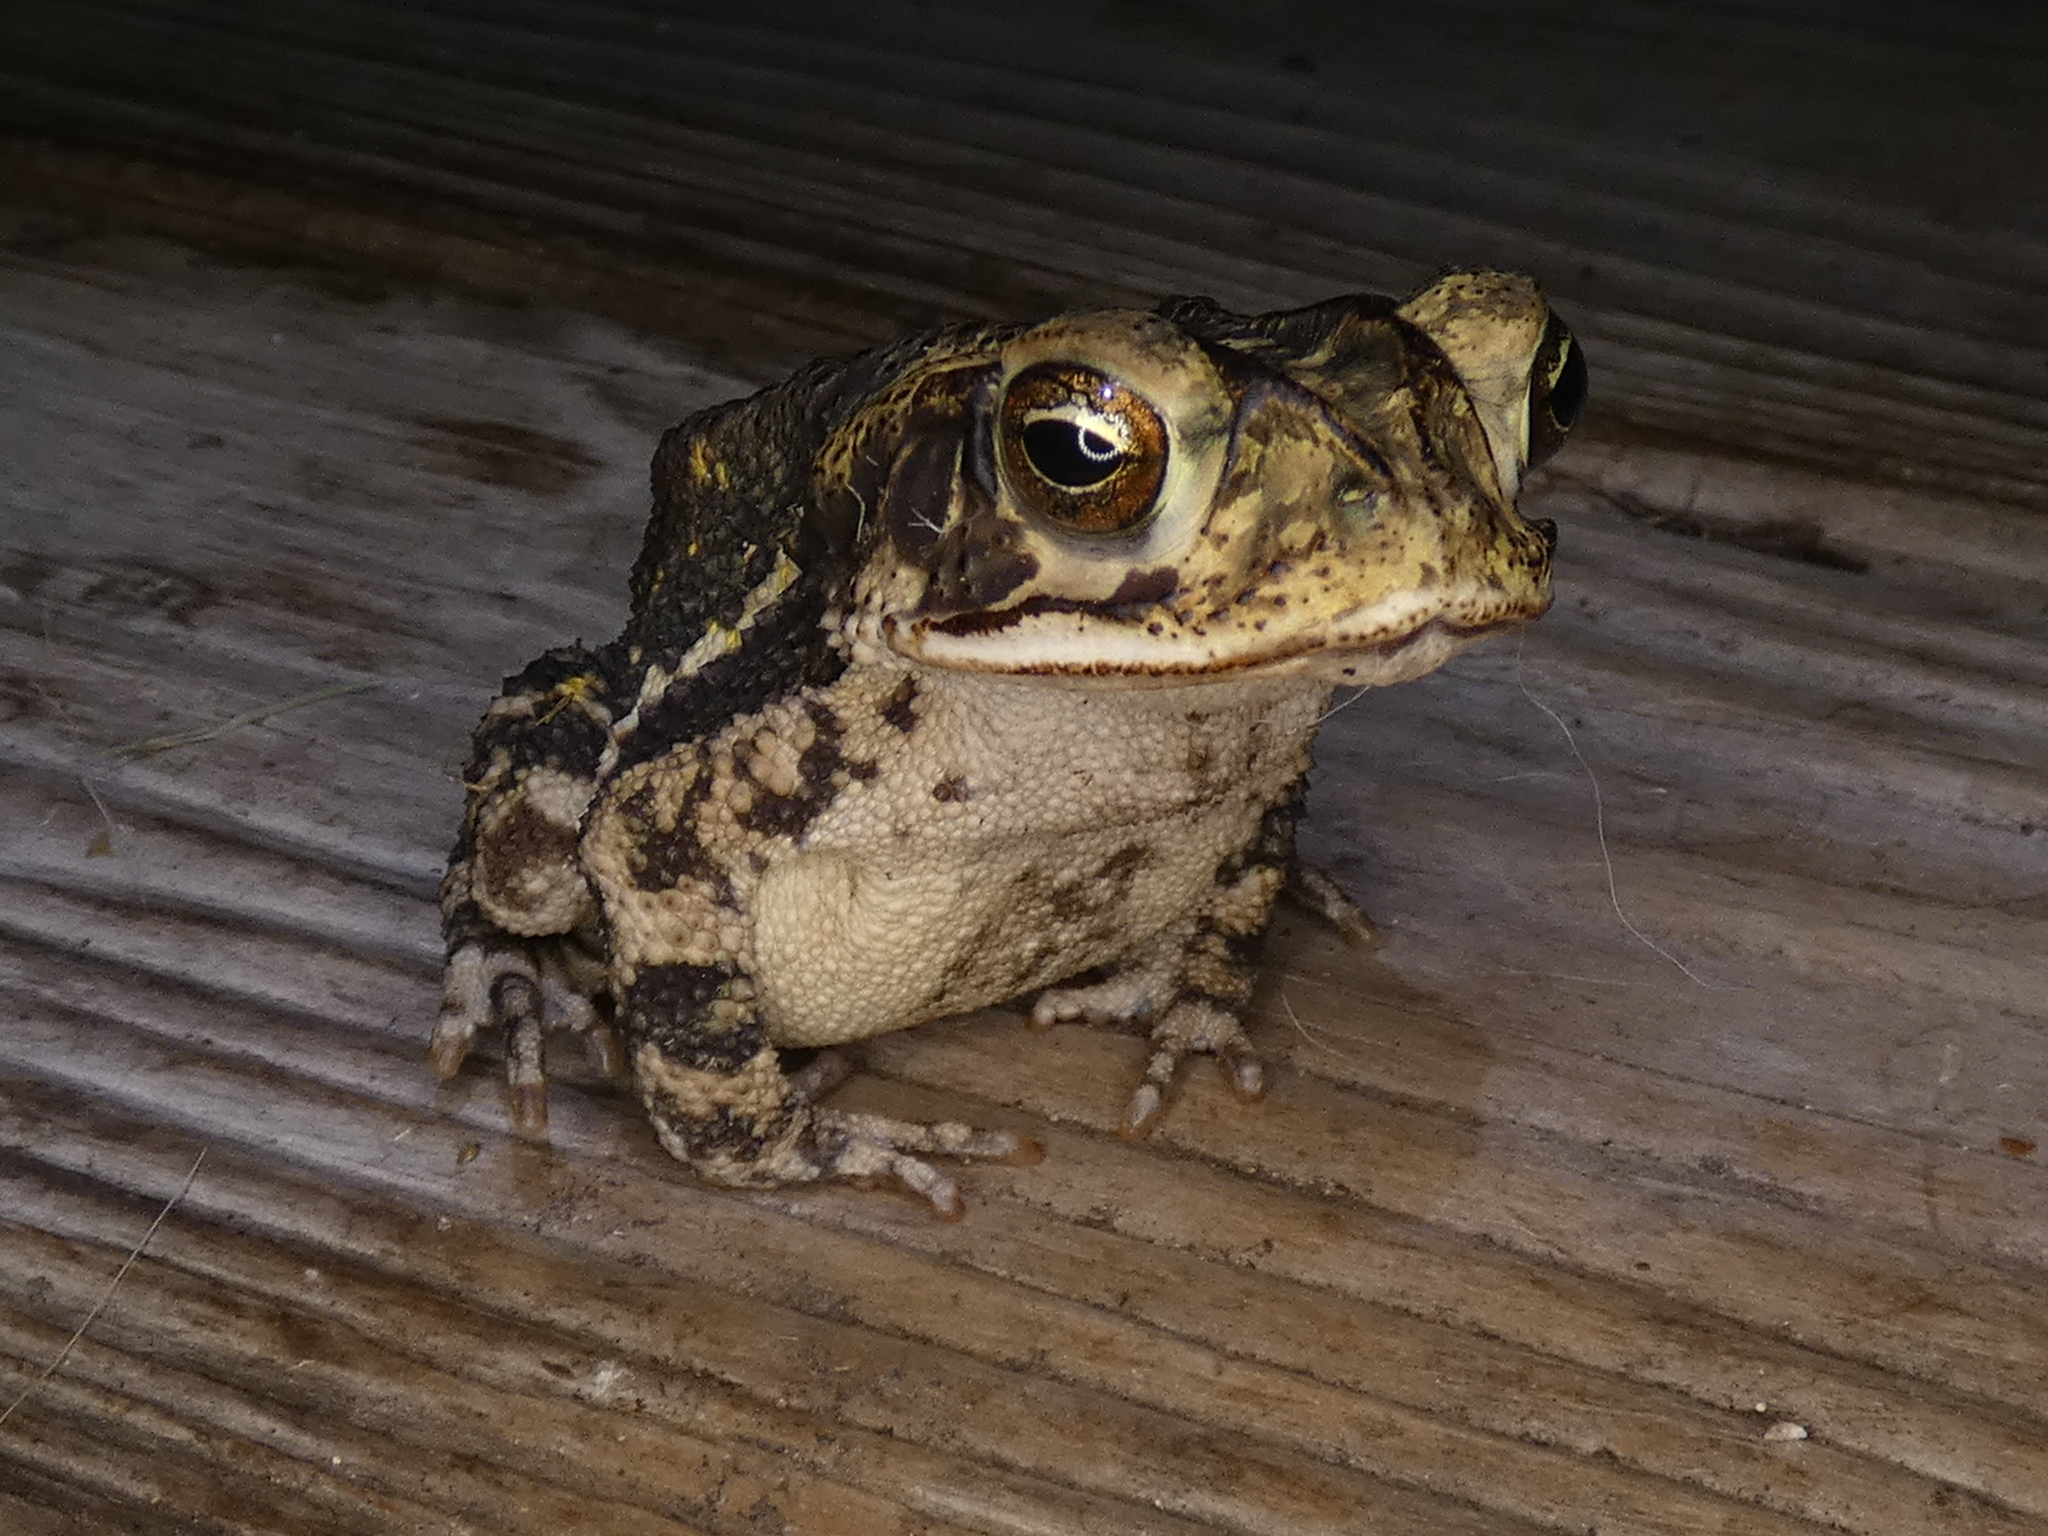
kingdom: Animalia
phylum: Chordata
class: Amphibia
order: Anura
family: Bufonidae
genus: Incilius
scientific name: Incilius nebulifer
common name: Gulf coast toad
